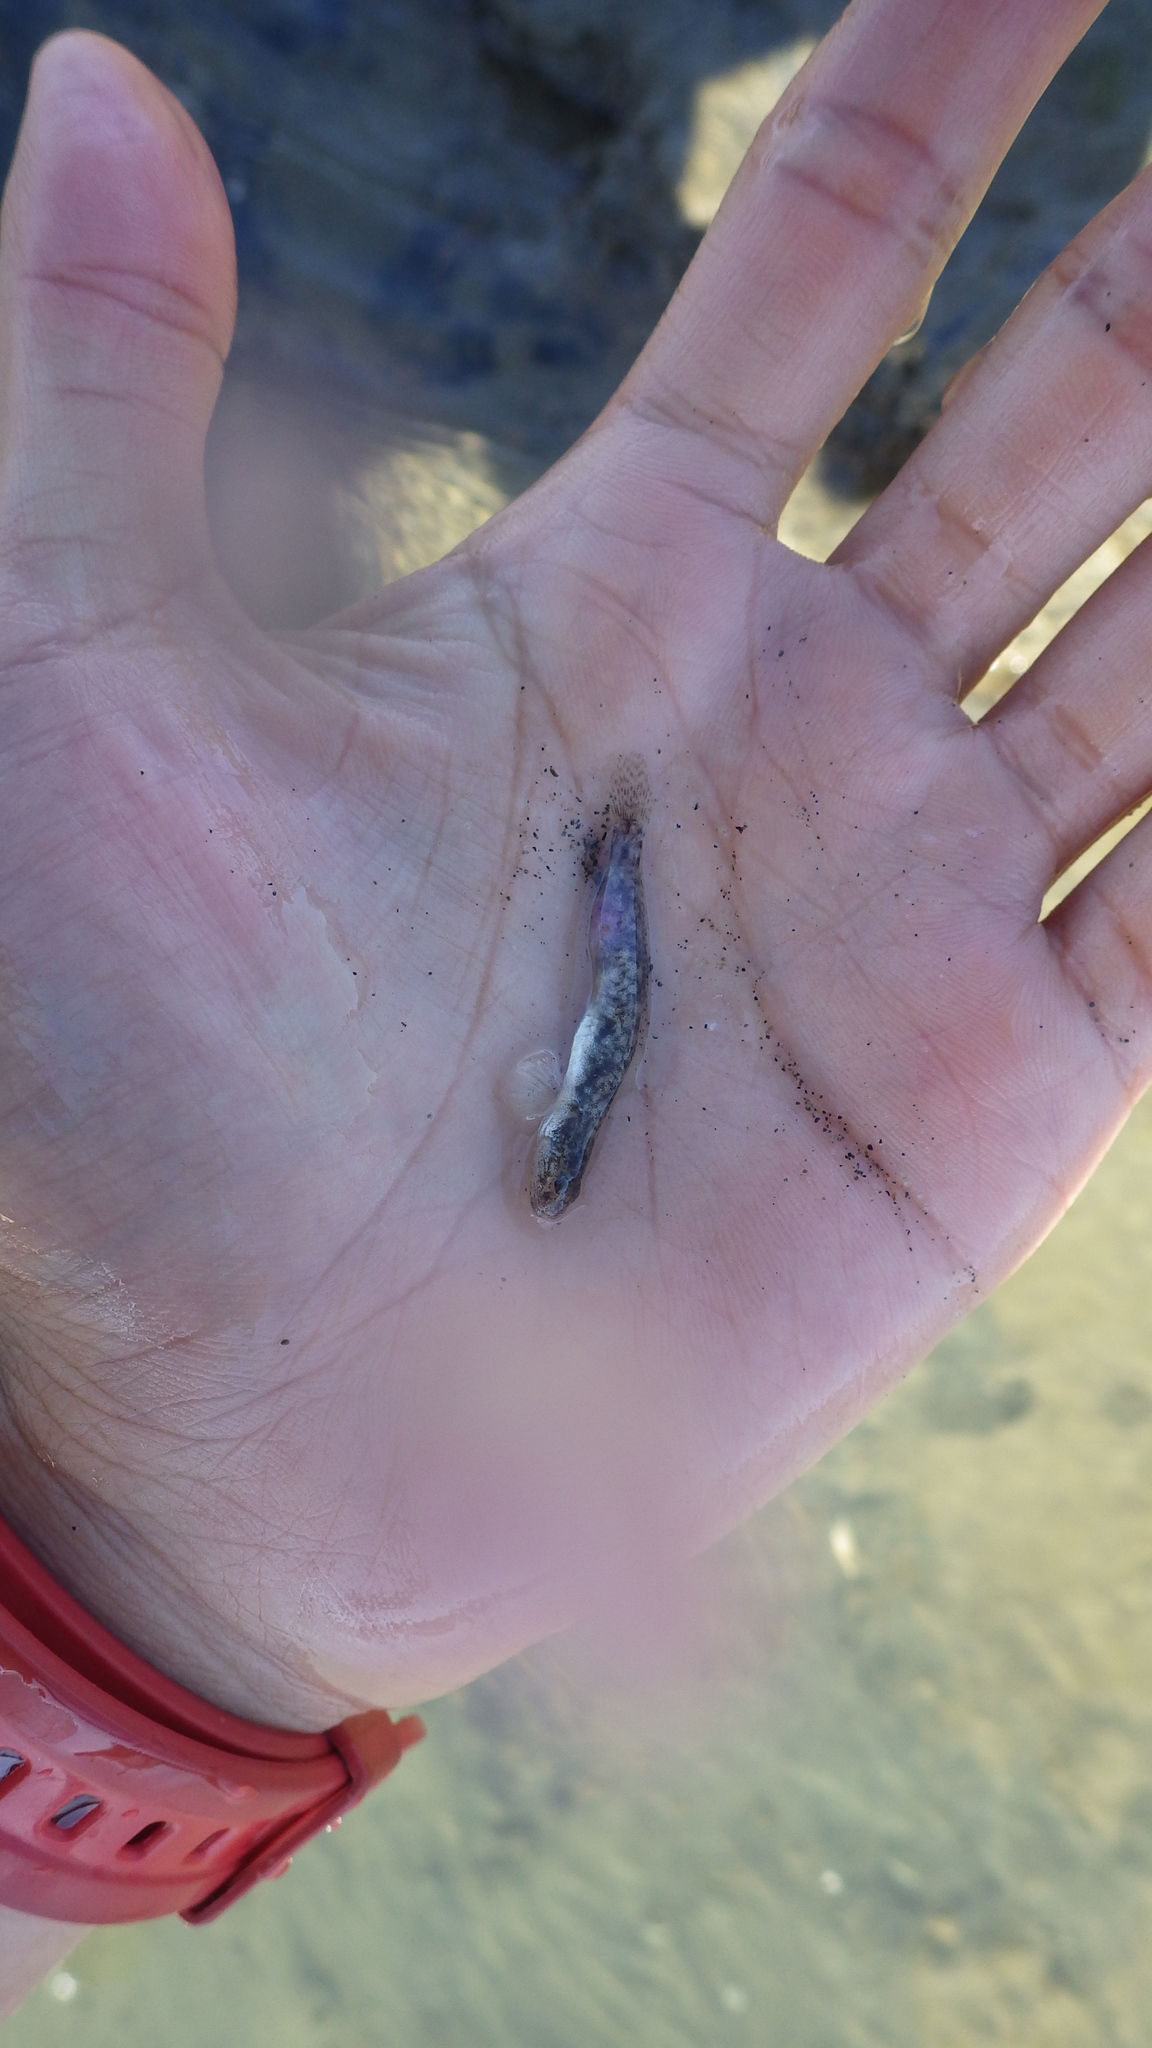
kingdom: Animalia
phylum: Chordata
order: Perciformes
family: Gobiidae
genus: Clevelandia
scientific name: Clevelandia ios
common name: Arrow goby
